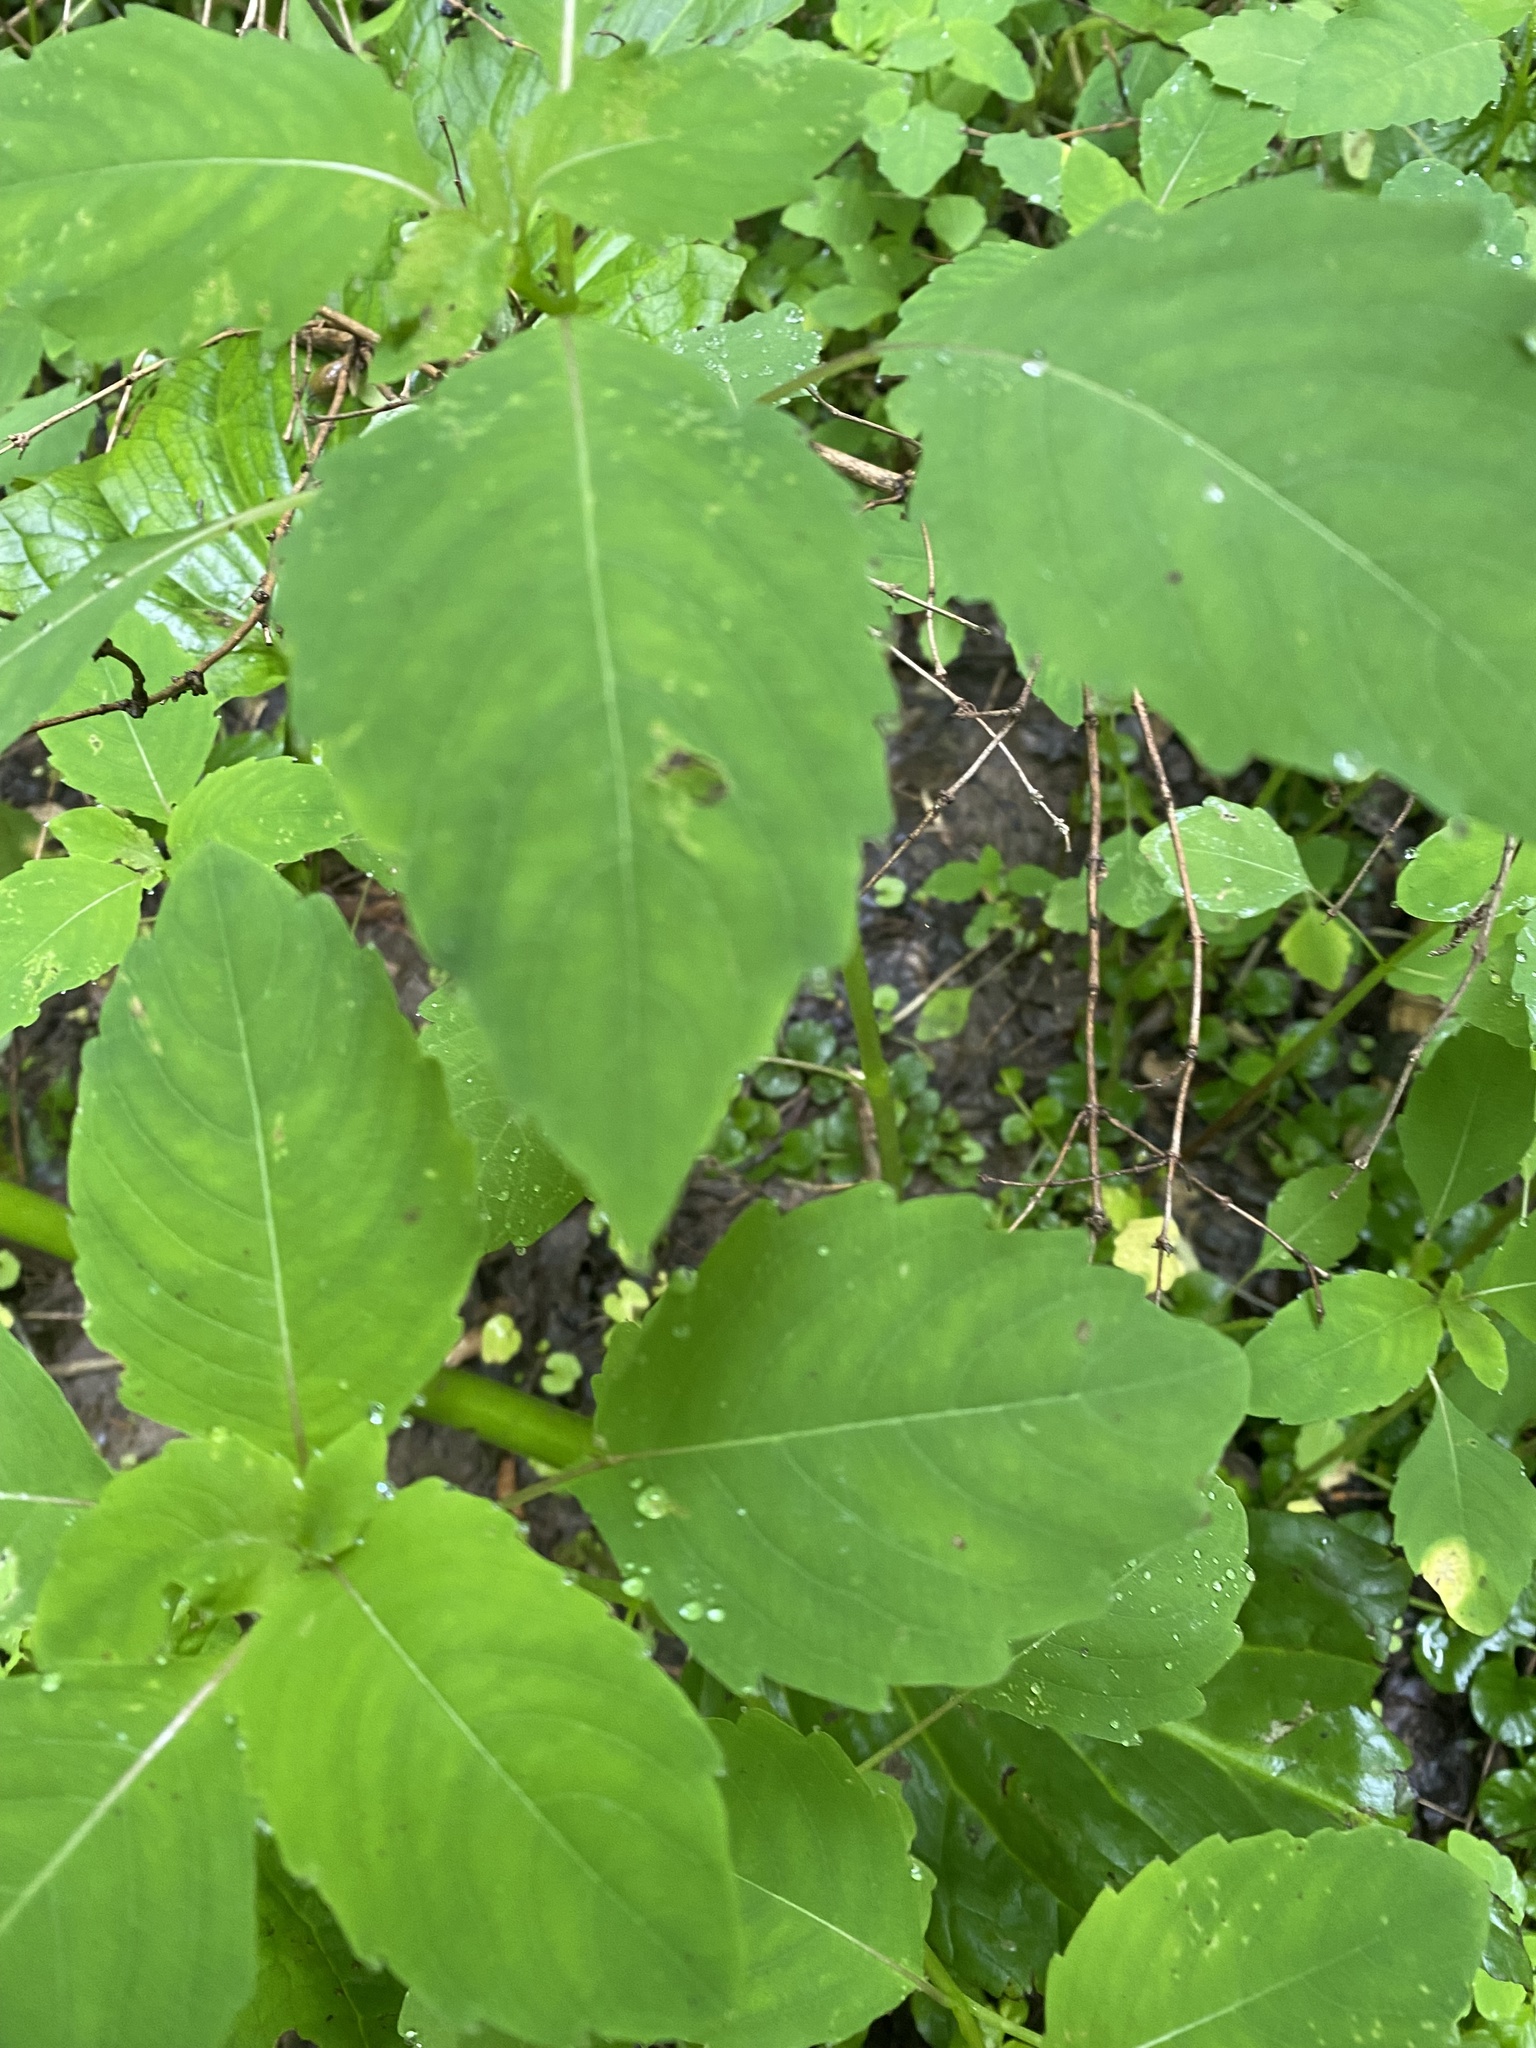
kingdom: Plantae
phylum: Tracheophyta
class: Magnoliopsida
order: Ericales
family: Balsaminaceae
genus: Impatiens
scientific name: Impatiens capensis
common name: Orange balsam
